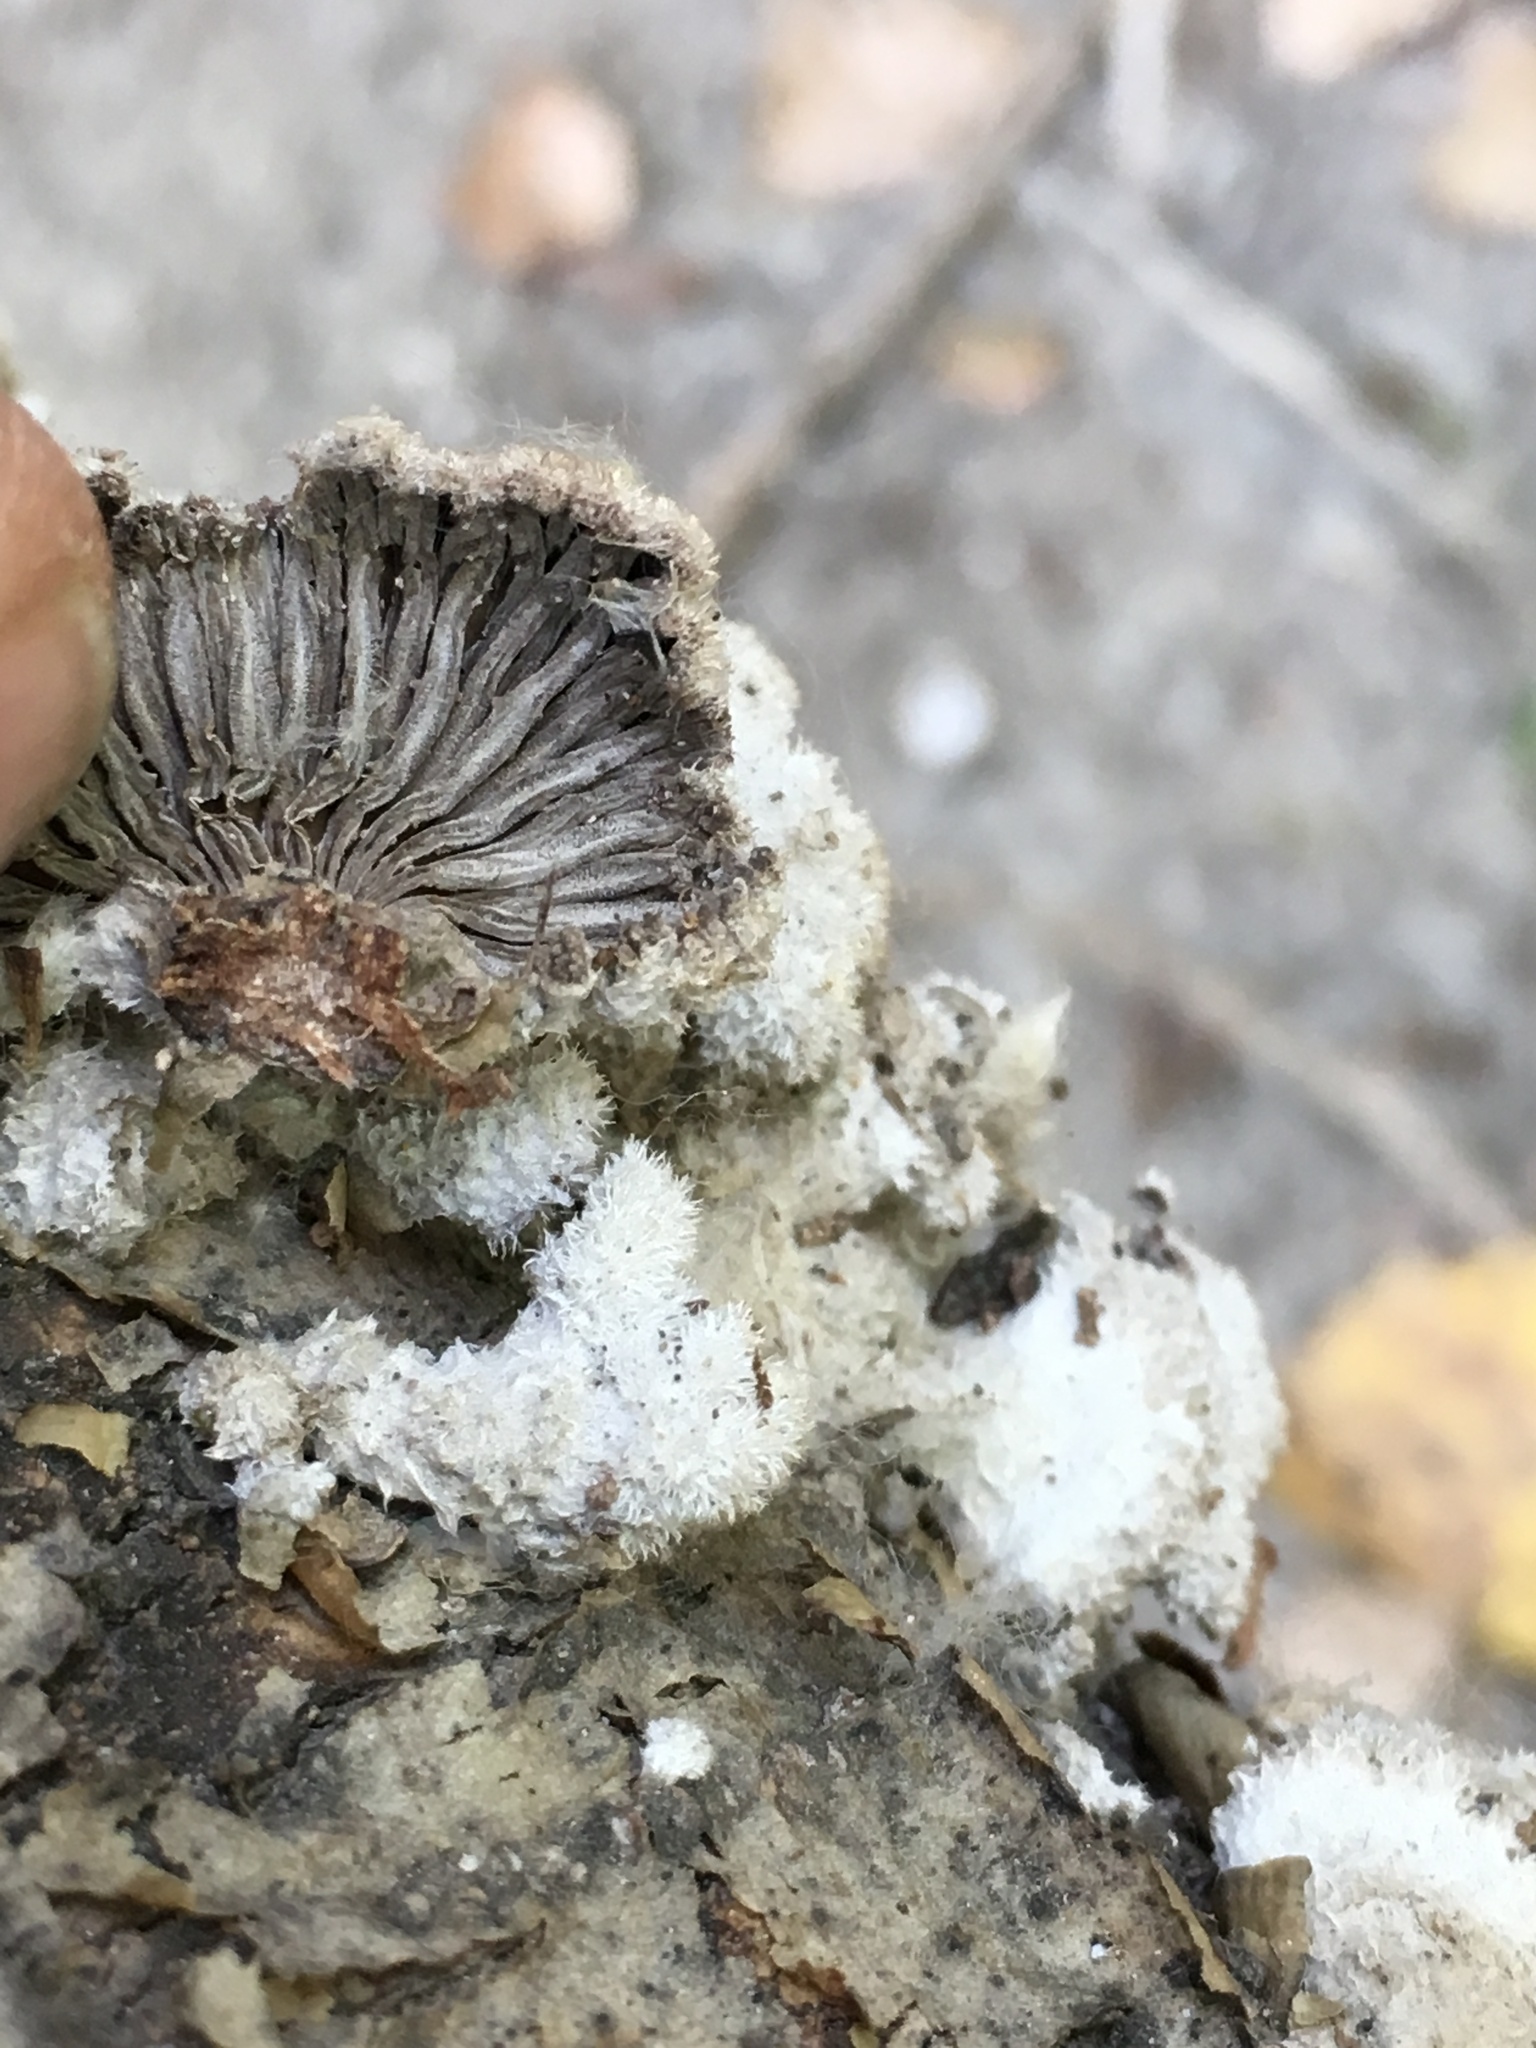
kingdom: Fungi
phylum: Basidiomycota
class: Agaricomycetes
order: Agaricales
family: Schizophyllaceae
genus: Schizophyllum
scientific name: Schizophyllum commune
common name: Common porecrust
